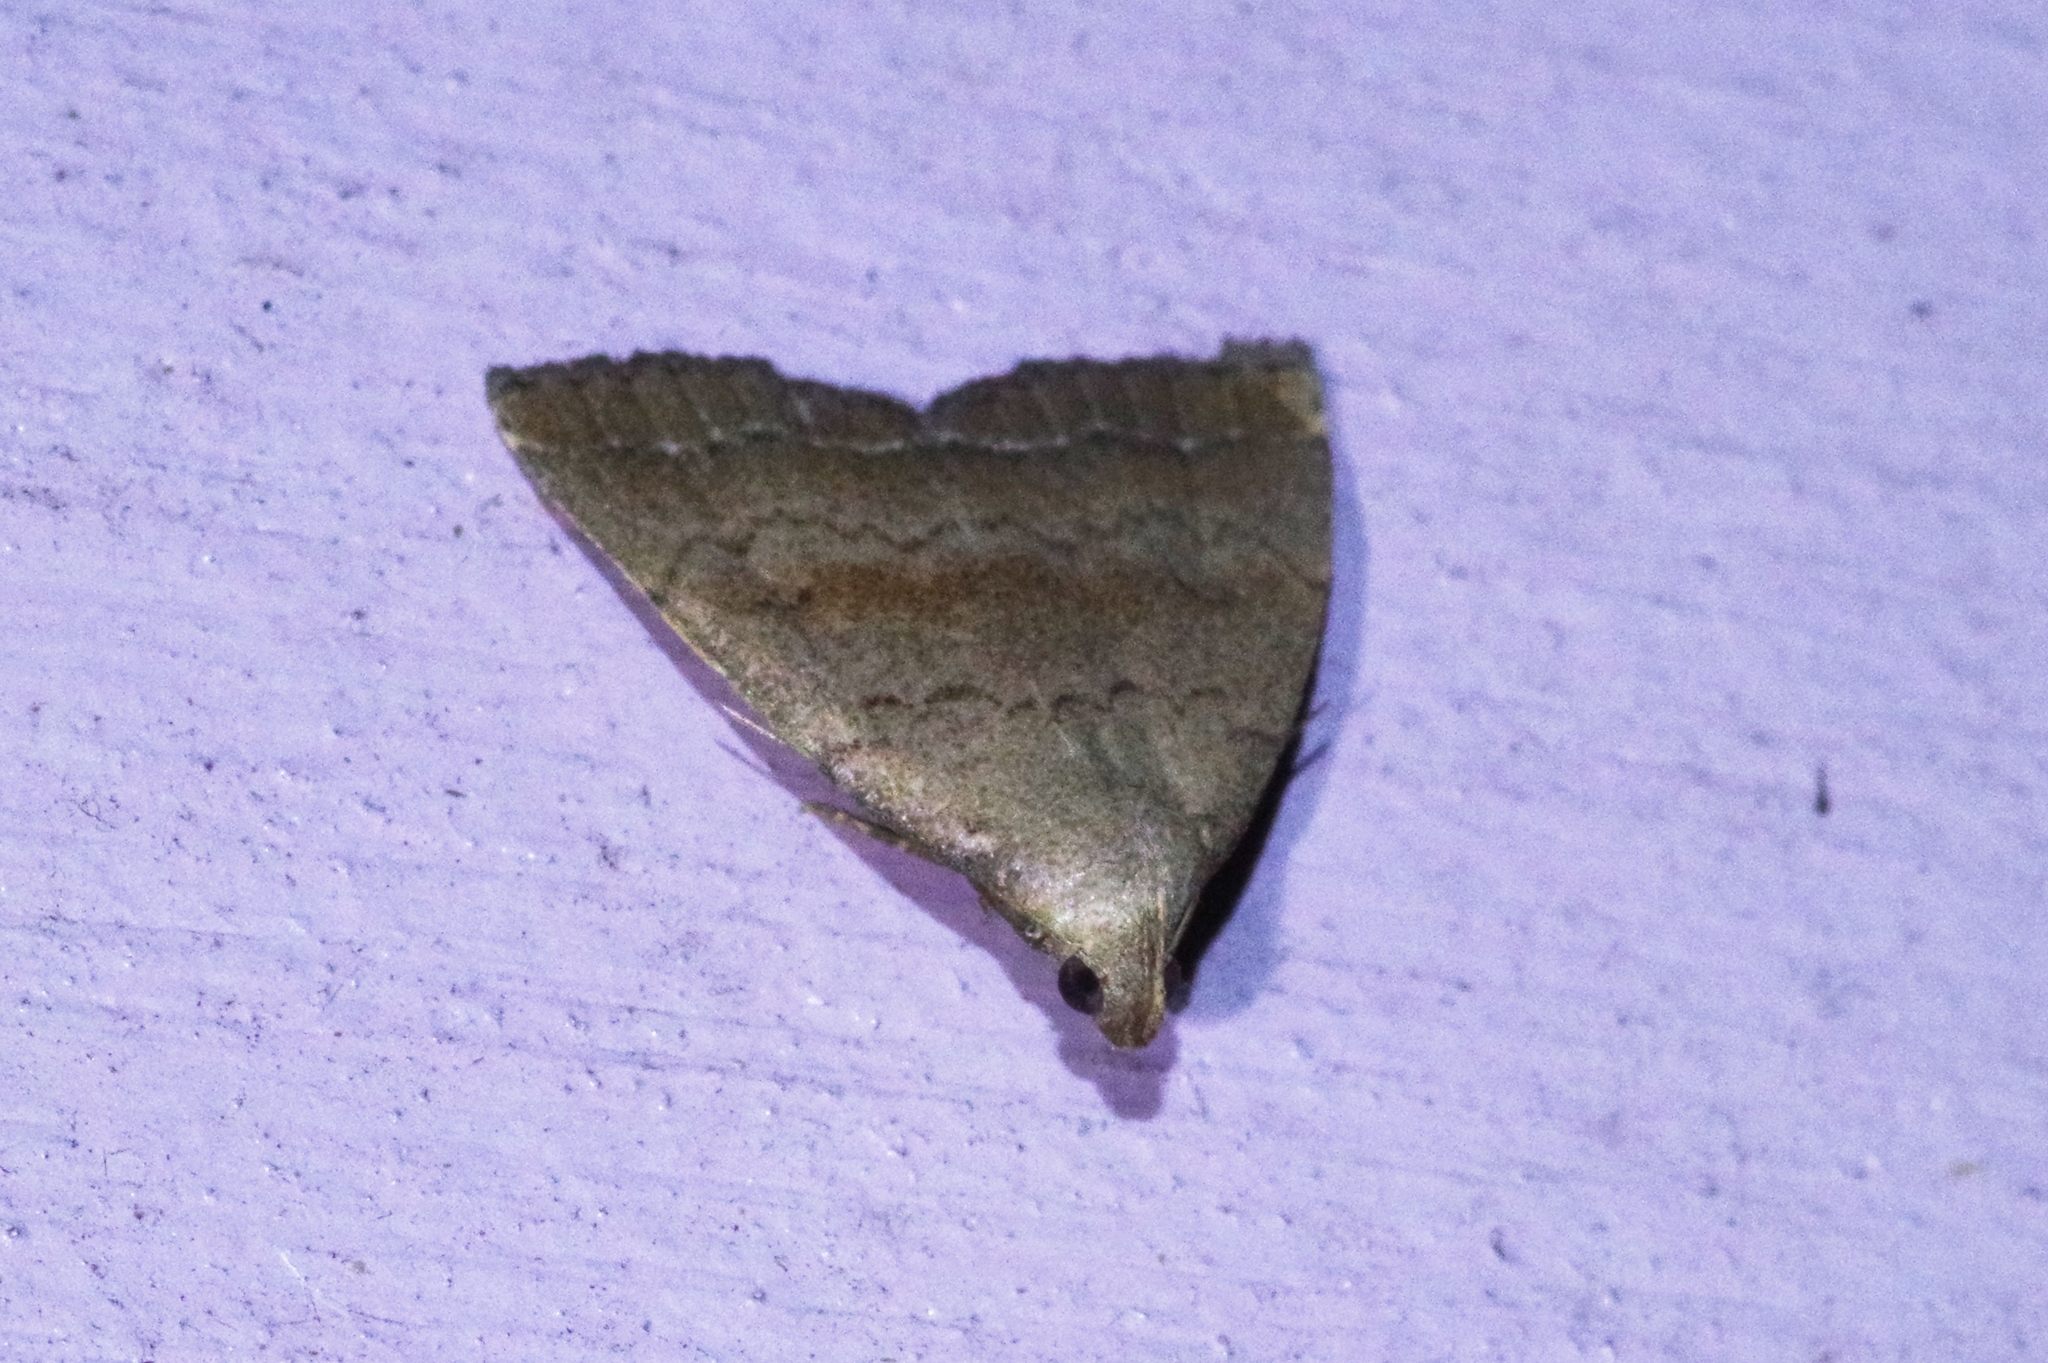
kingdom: Animalia
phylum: Arthropoda
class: Insecta
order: Lepidoptera
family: Erebidae
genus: Polypogon
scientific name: Polypogon
